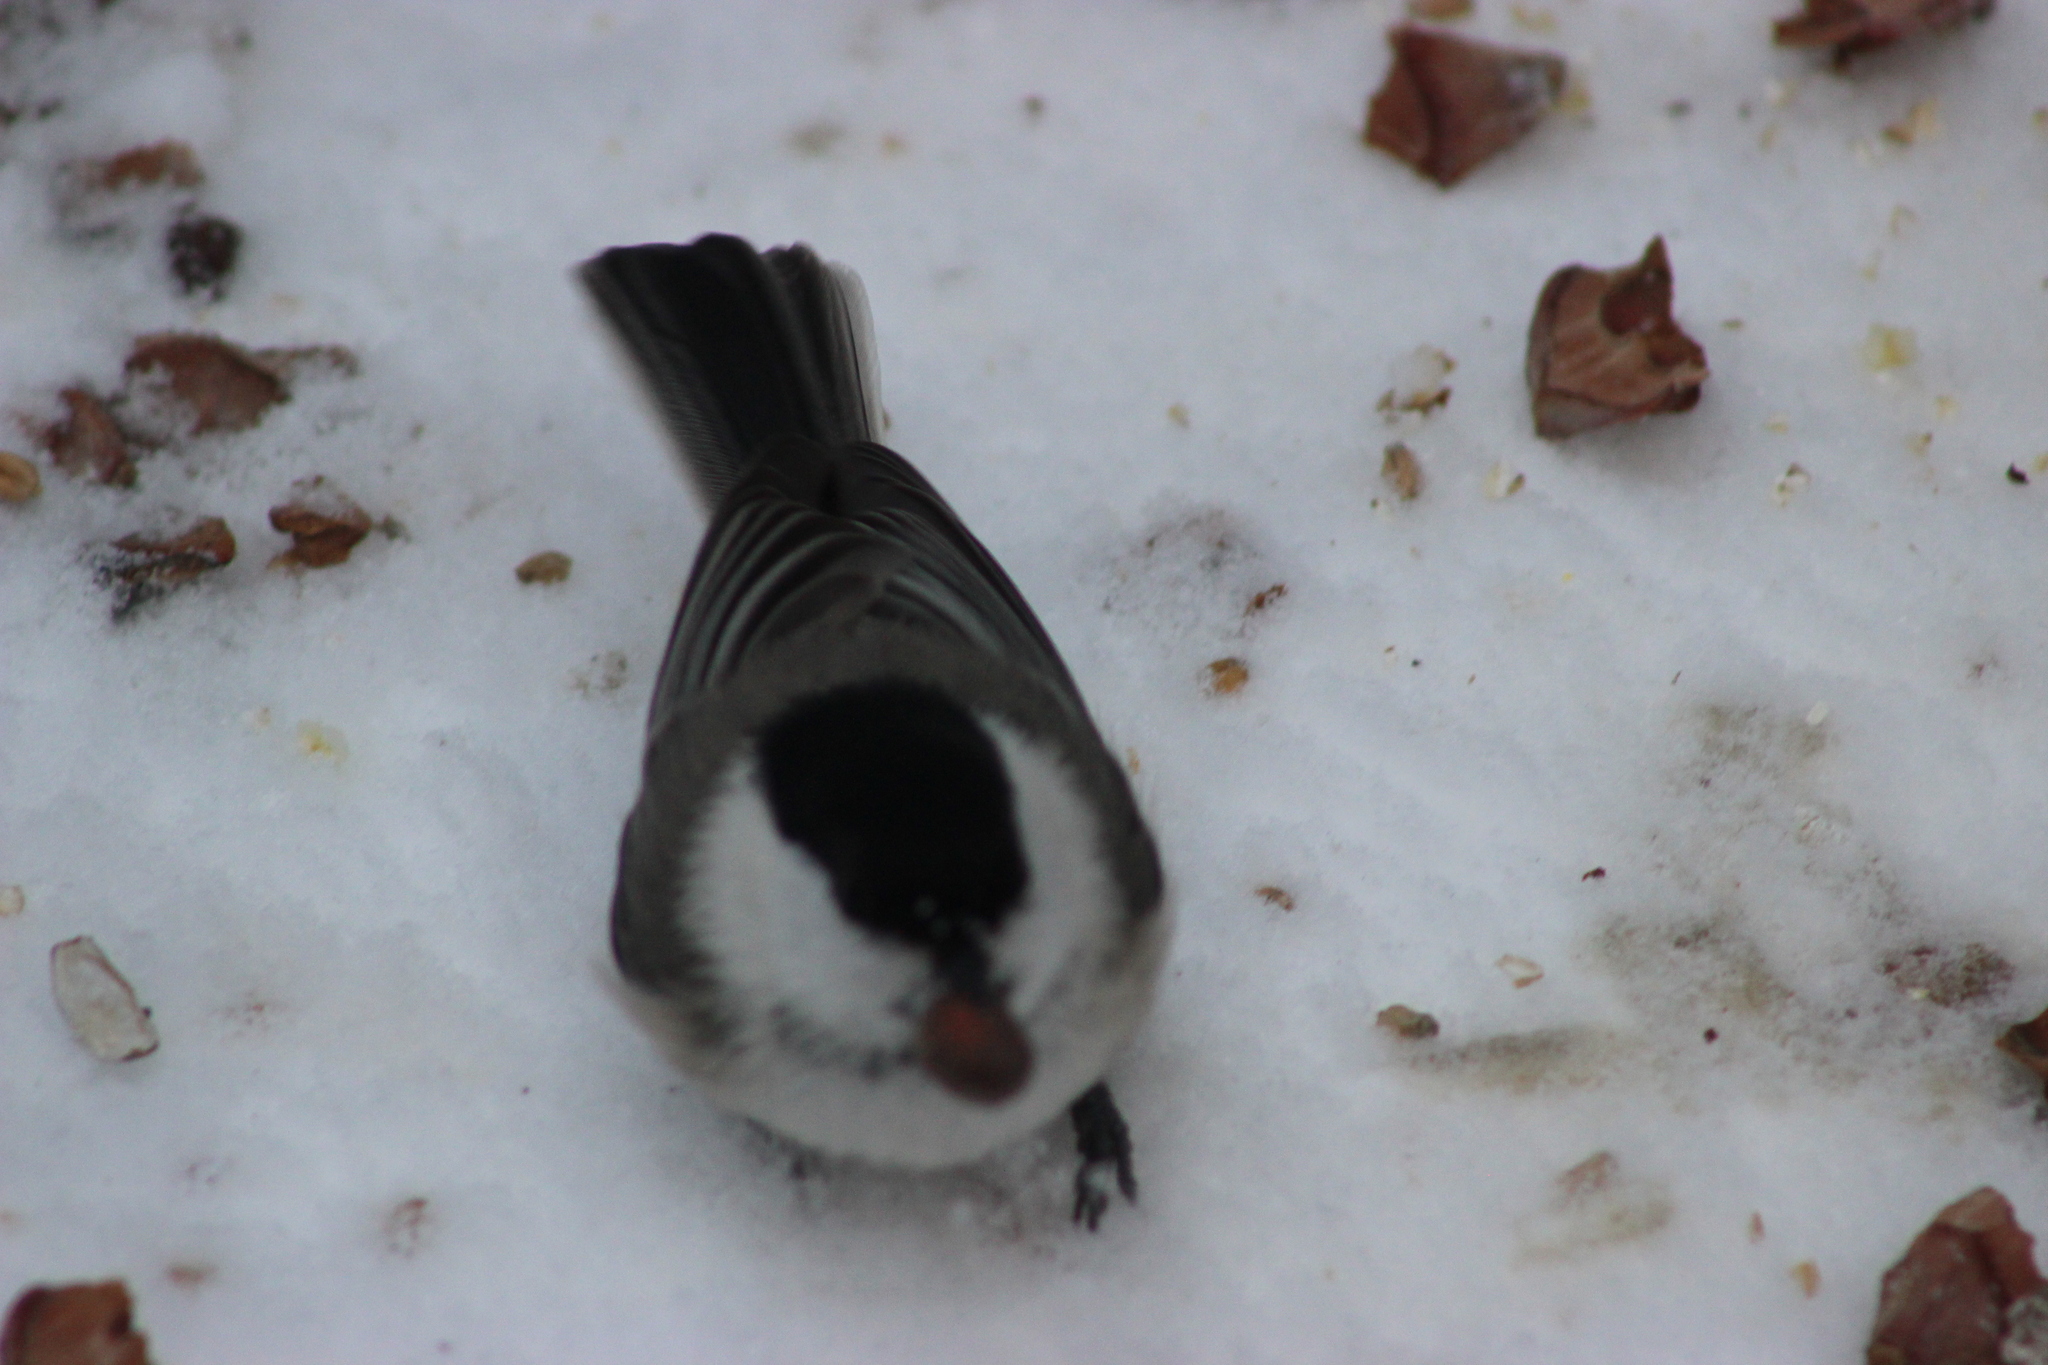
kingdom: Animalia
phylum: Chordata
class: Aves
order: Passeriformes
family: Paridae
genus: Poecile
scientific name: Poecile montanus
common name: Willow tit
